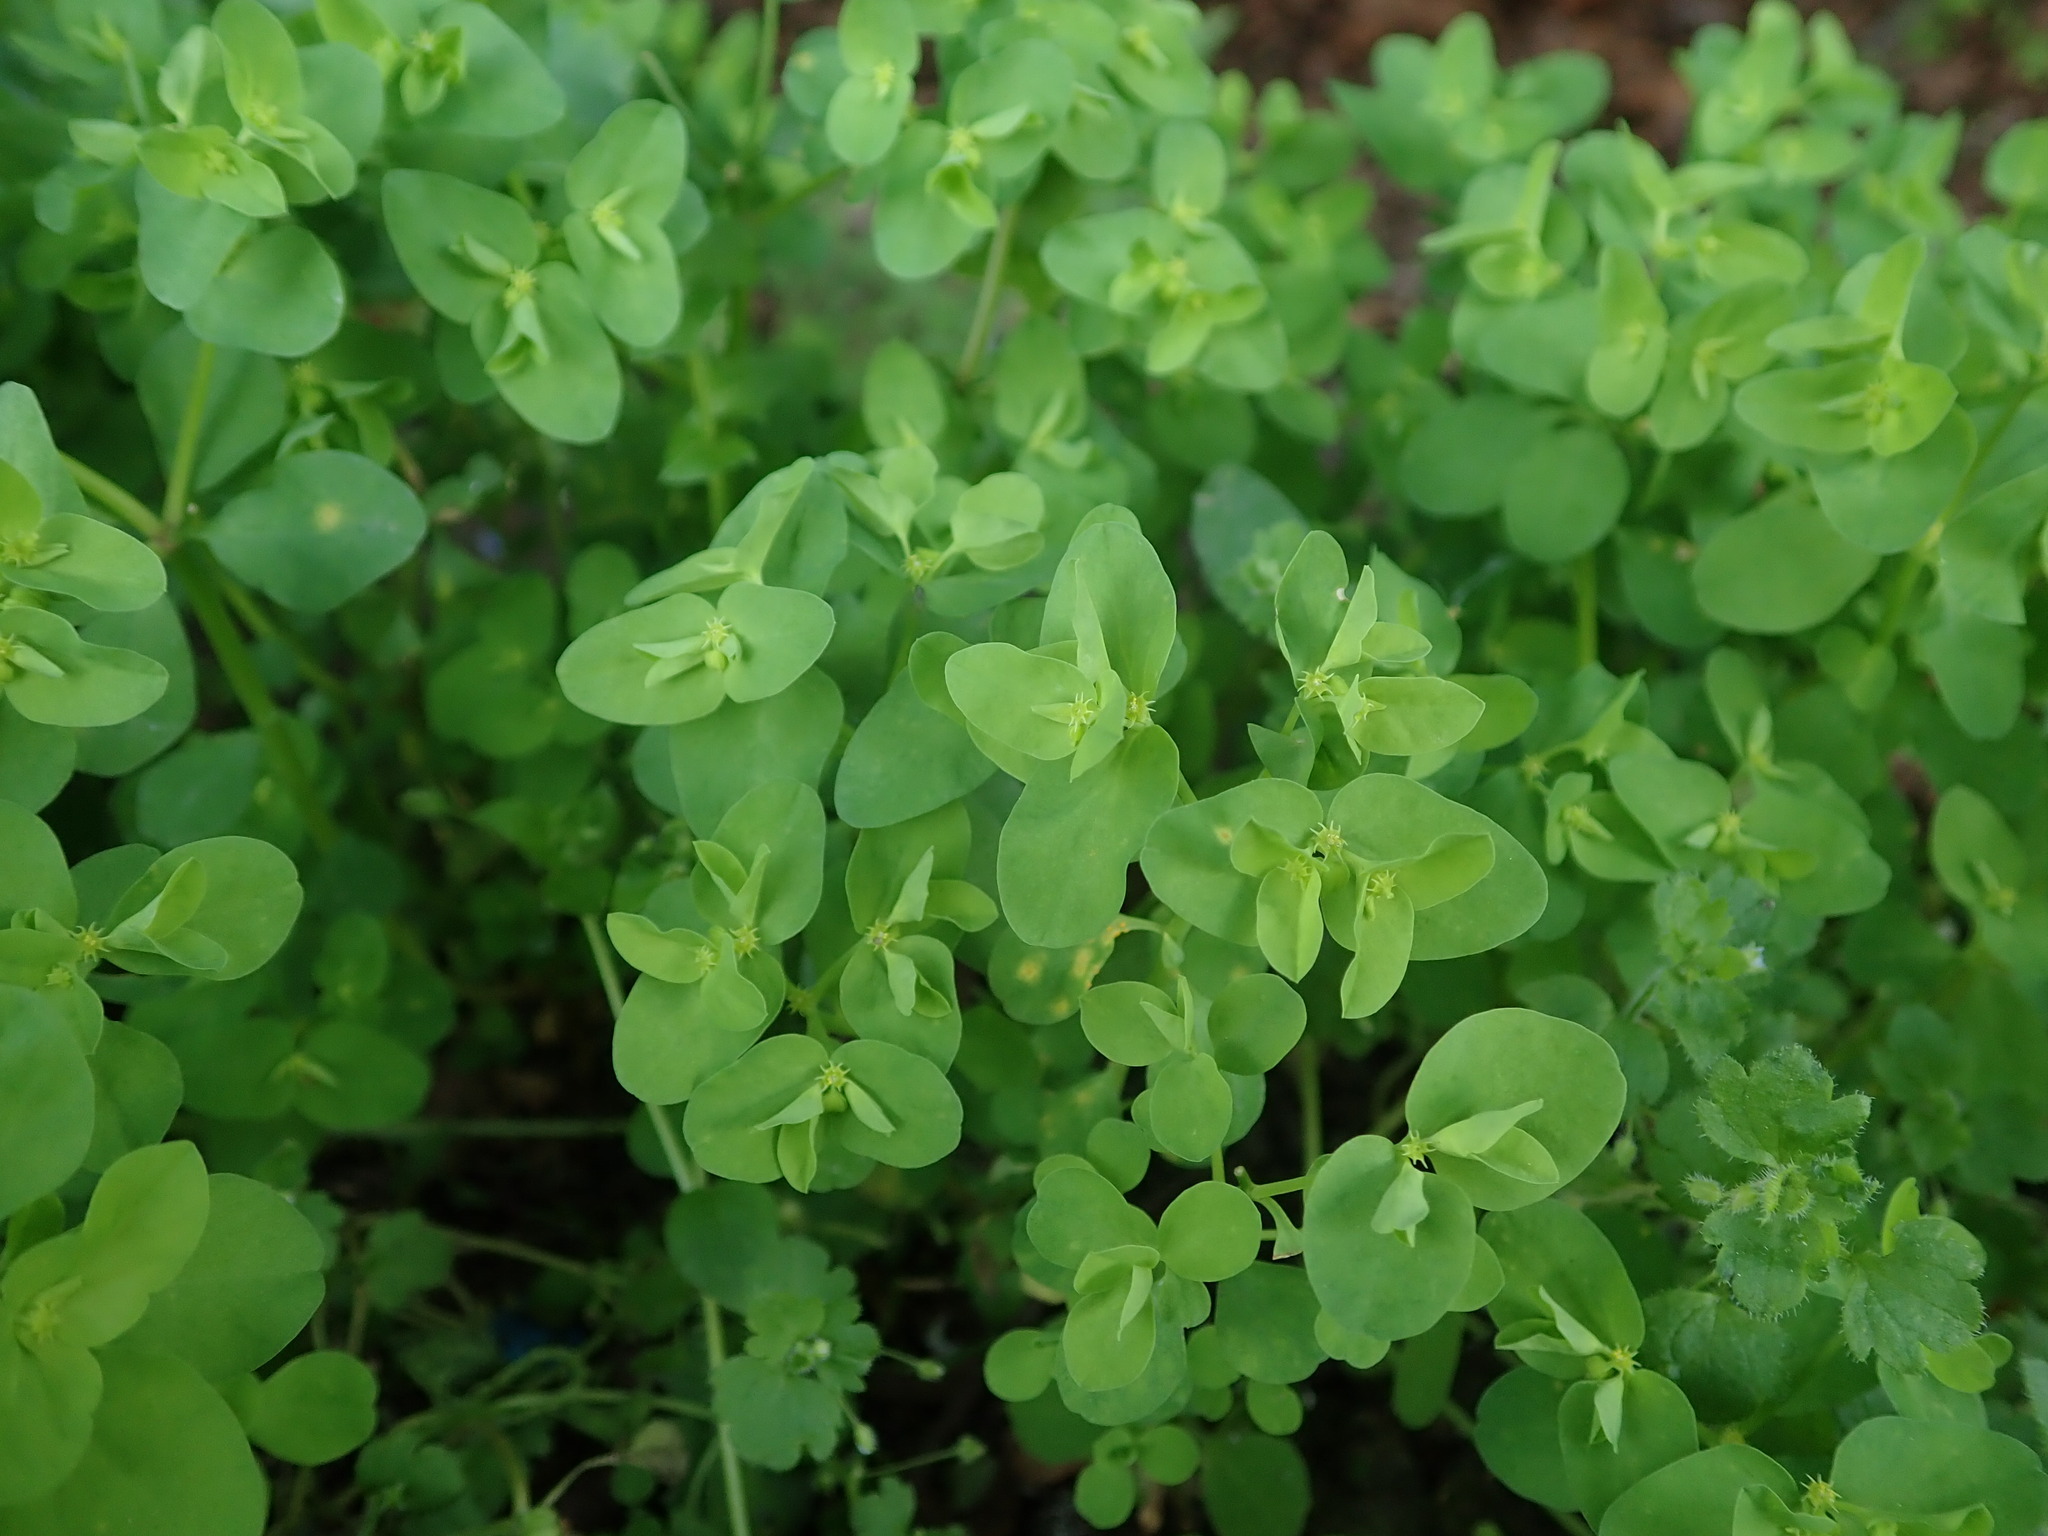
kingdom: Plantae
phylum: Tracheophyta
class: Magnoliopsida
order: Malpighiales
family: Euphorbiaceae
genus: Euphorbia
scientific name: Euphorbia peplus
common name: Petty spurge
